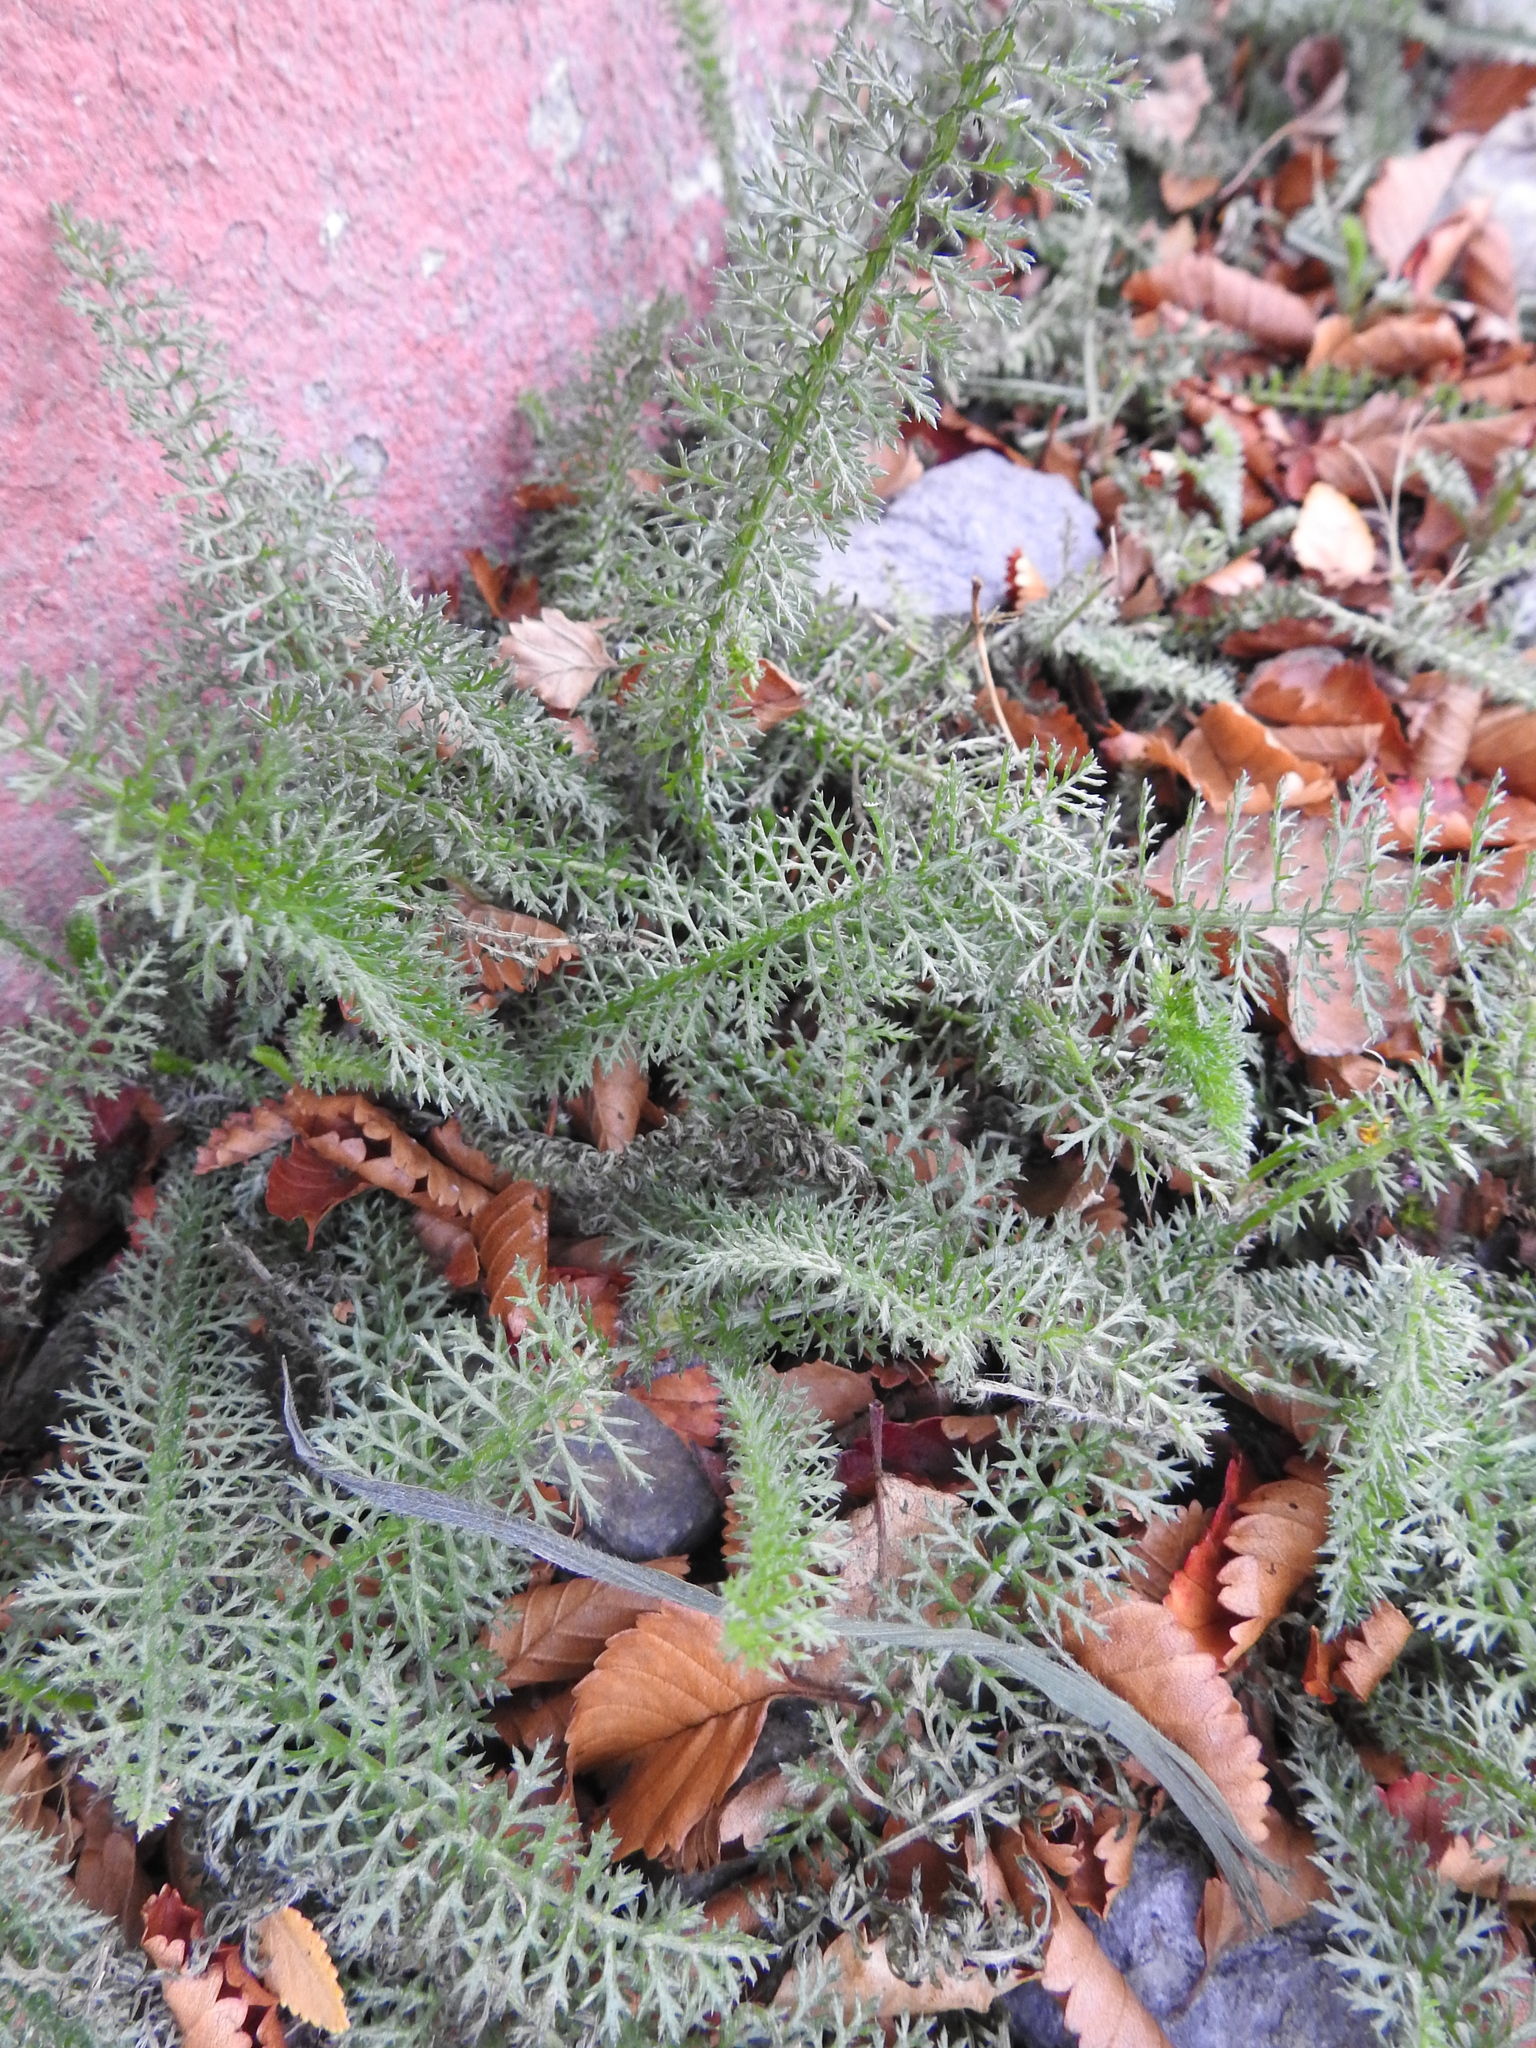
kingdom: Plantae
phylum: Tracheophyta
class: Magnoliopsida
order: Asterales
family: Asteraceae
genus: Achillea
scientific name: Achillea millefolium
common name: Yarrow
